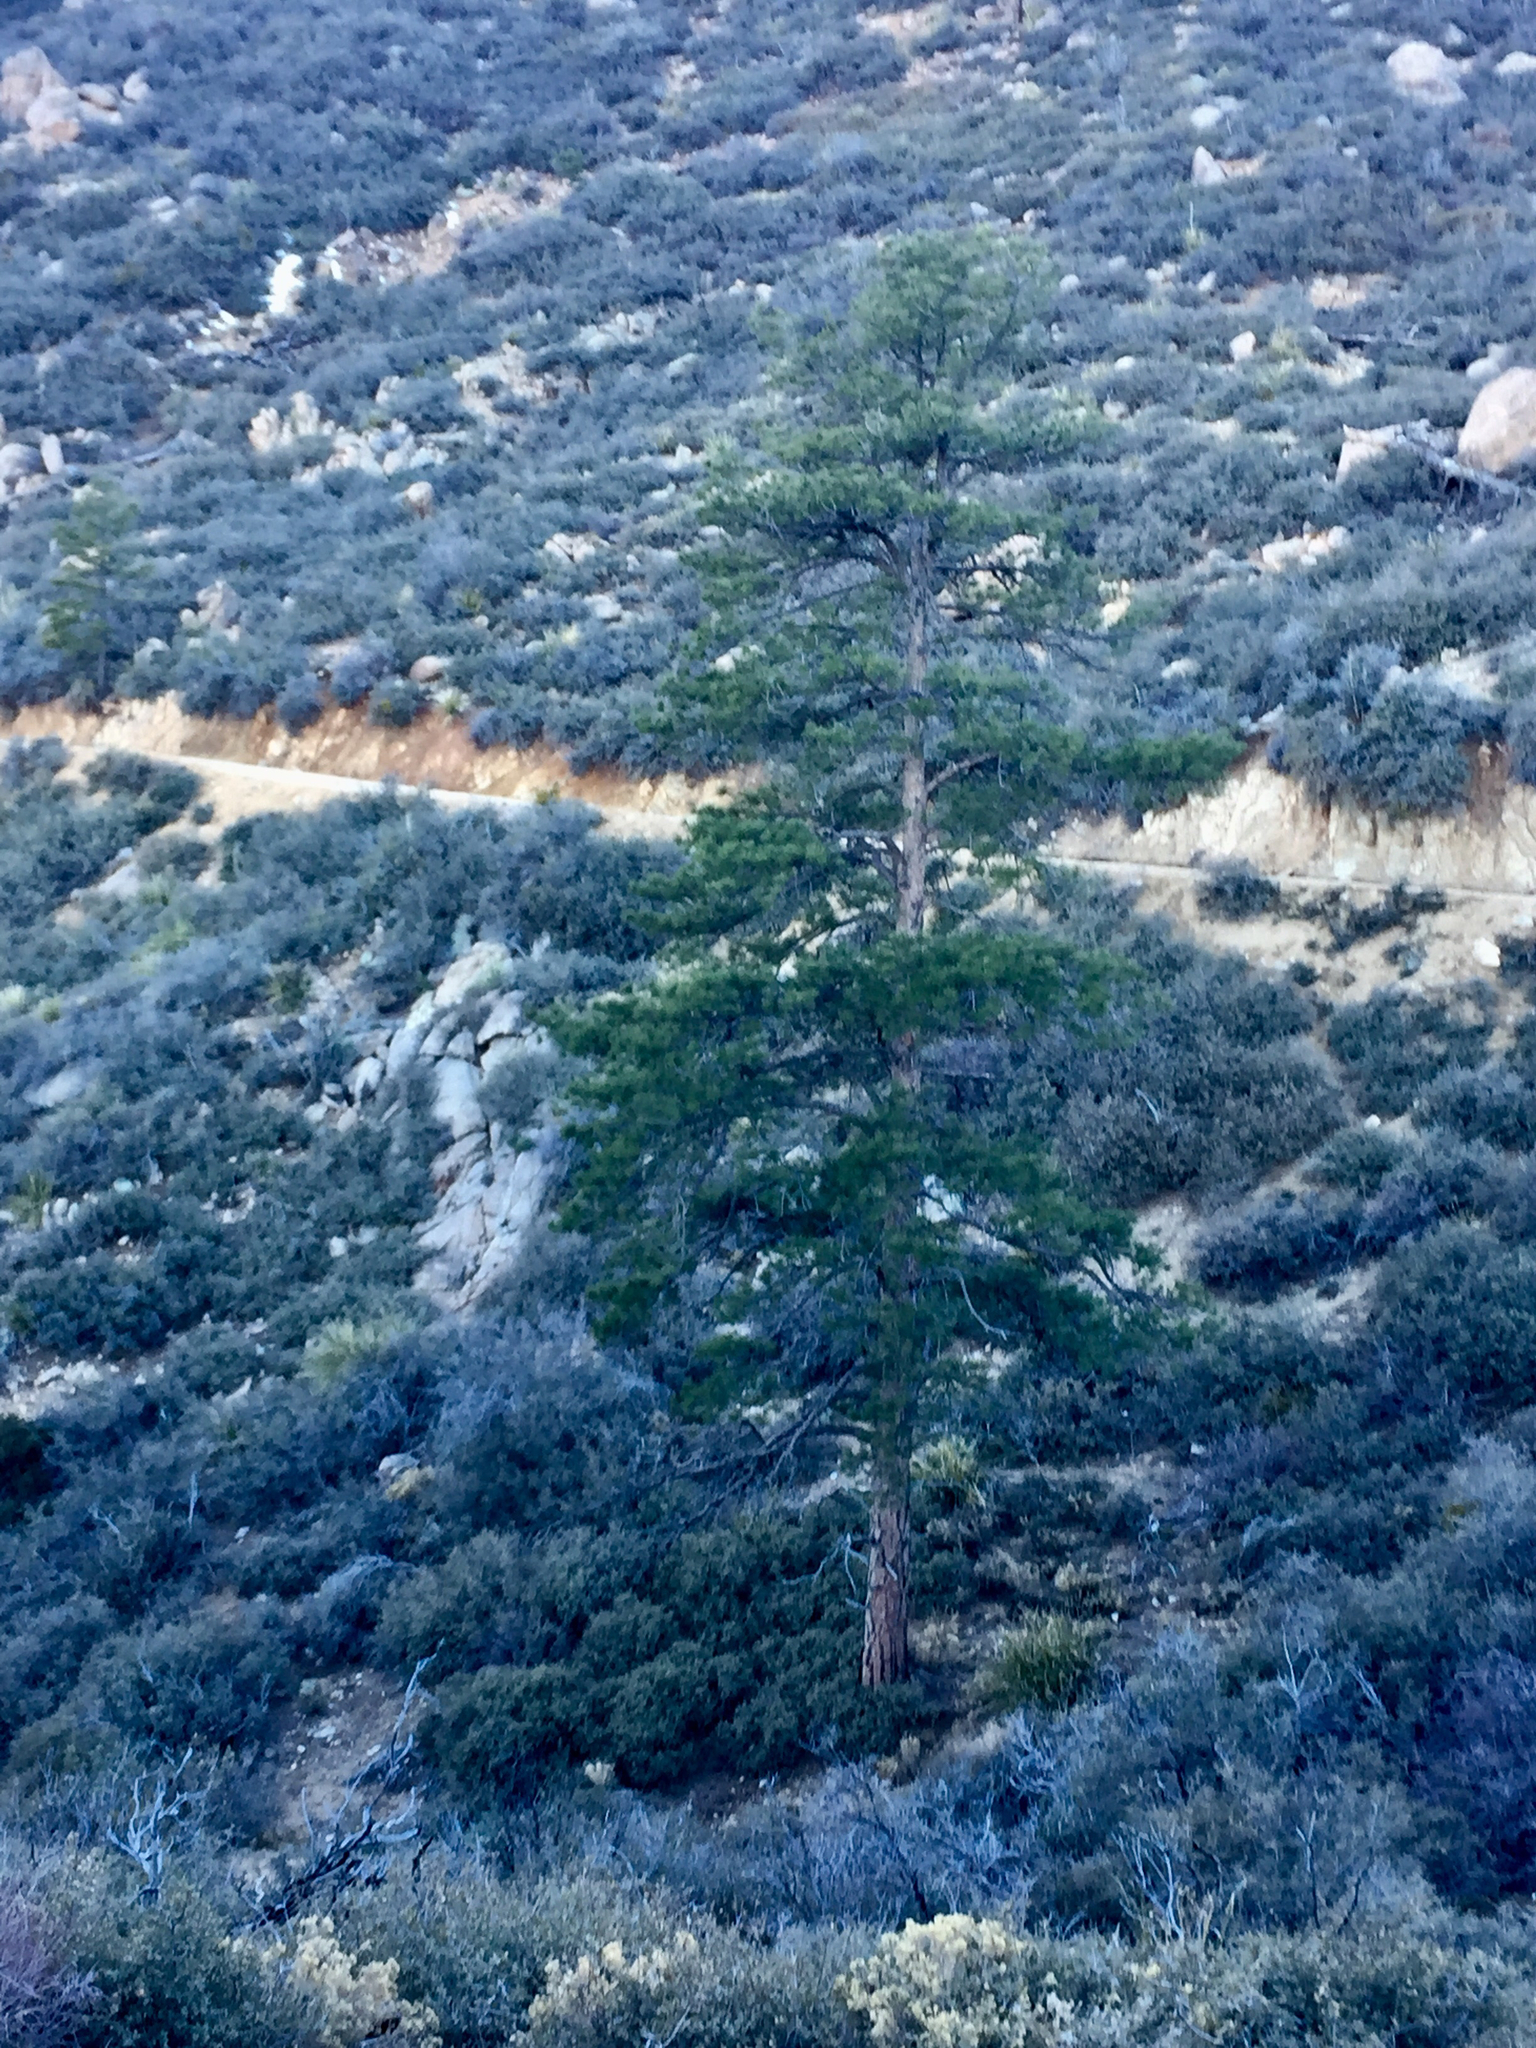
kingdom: Plantae
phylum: Tracheophyta
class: Pinopsida
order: Pinales
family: Pinaceae
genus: Pinus
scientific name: Pinus ponderosa
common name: Western yellow-pine
